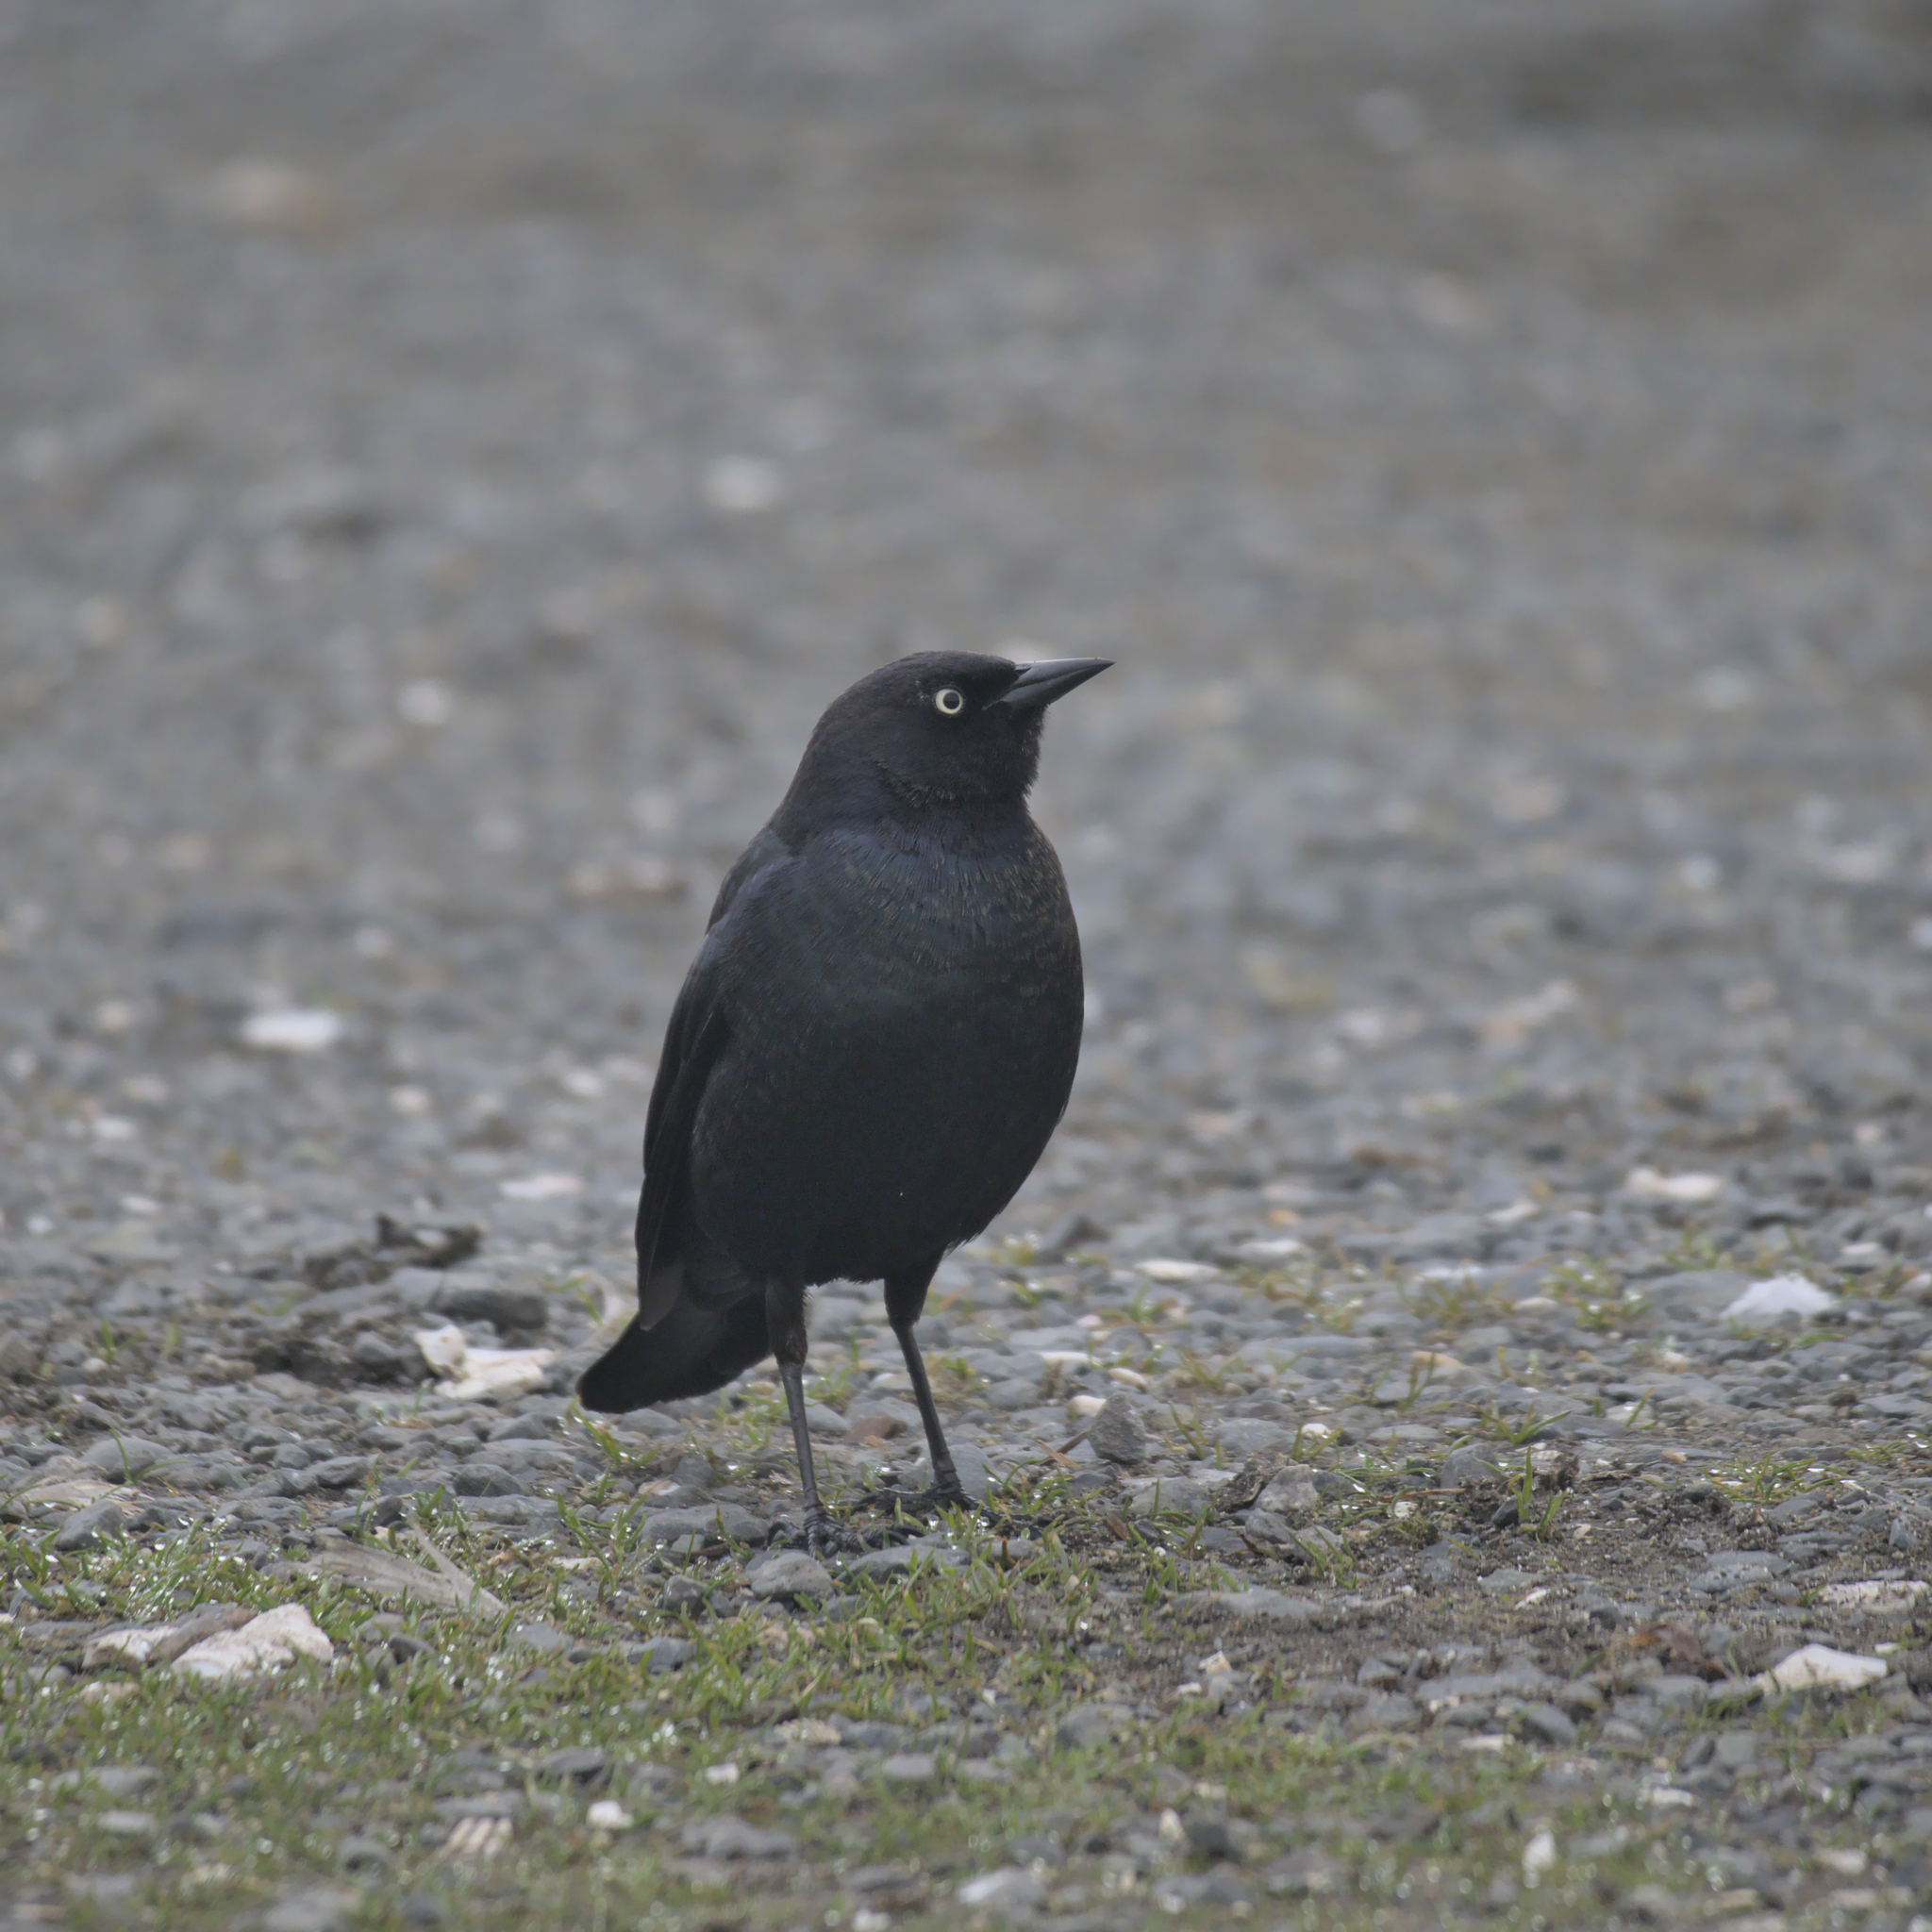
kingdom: Animalia
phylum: Chordata
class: Aves
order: Passeriformes
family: Icteridae
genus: Euphagus
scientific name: Euphagus cyanocephalus
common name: Brewer's blackbird
